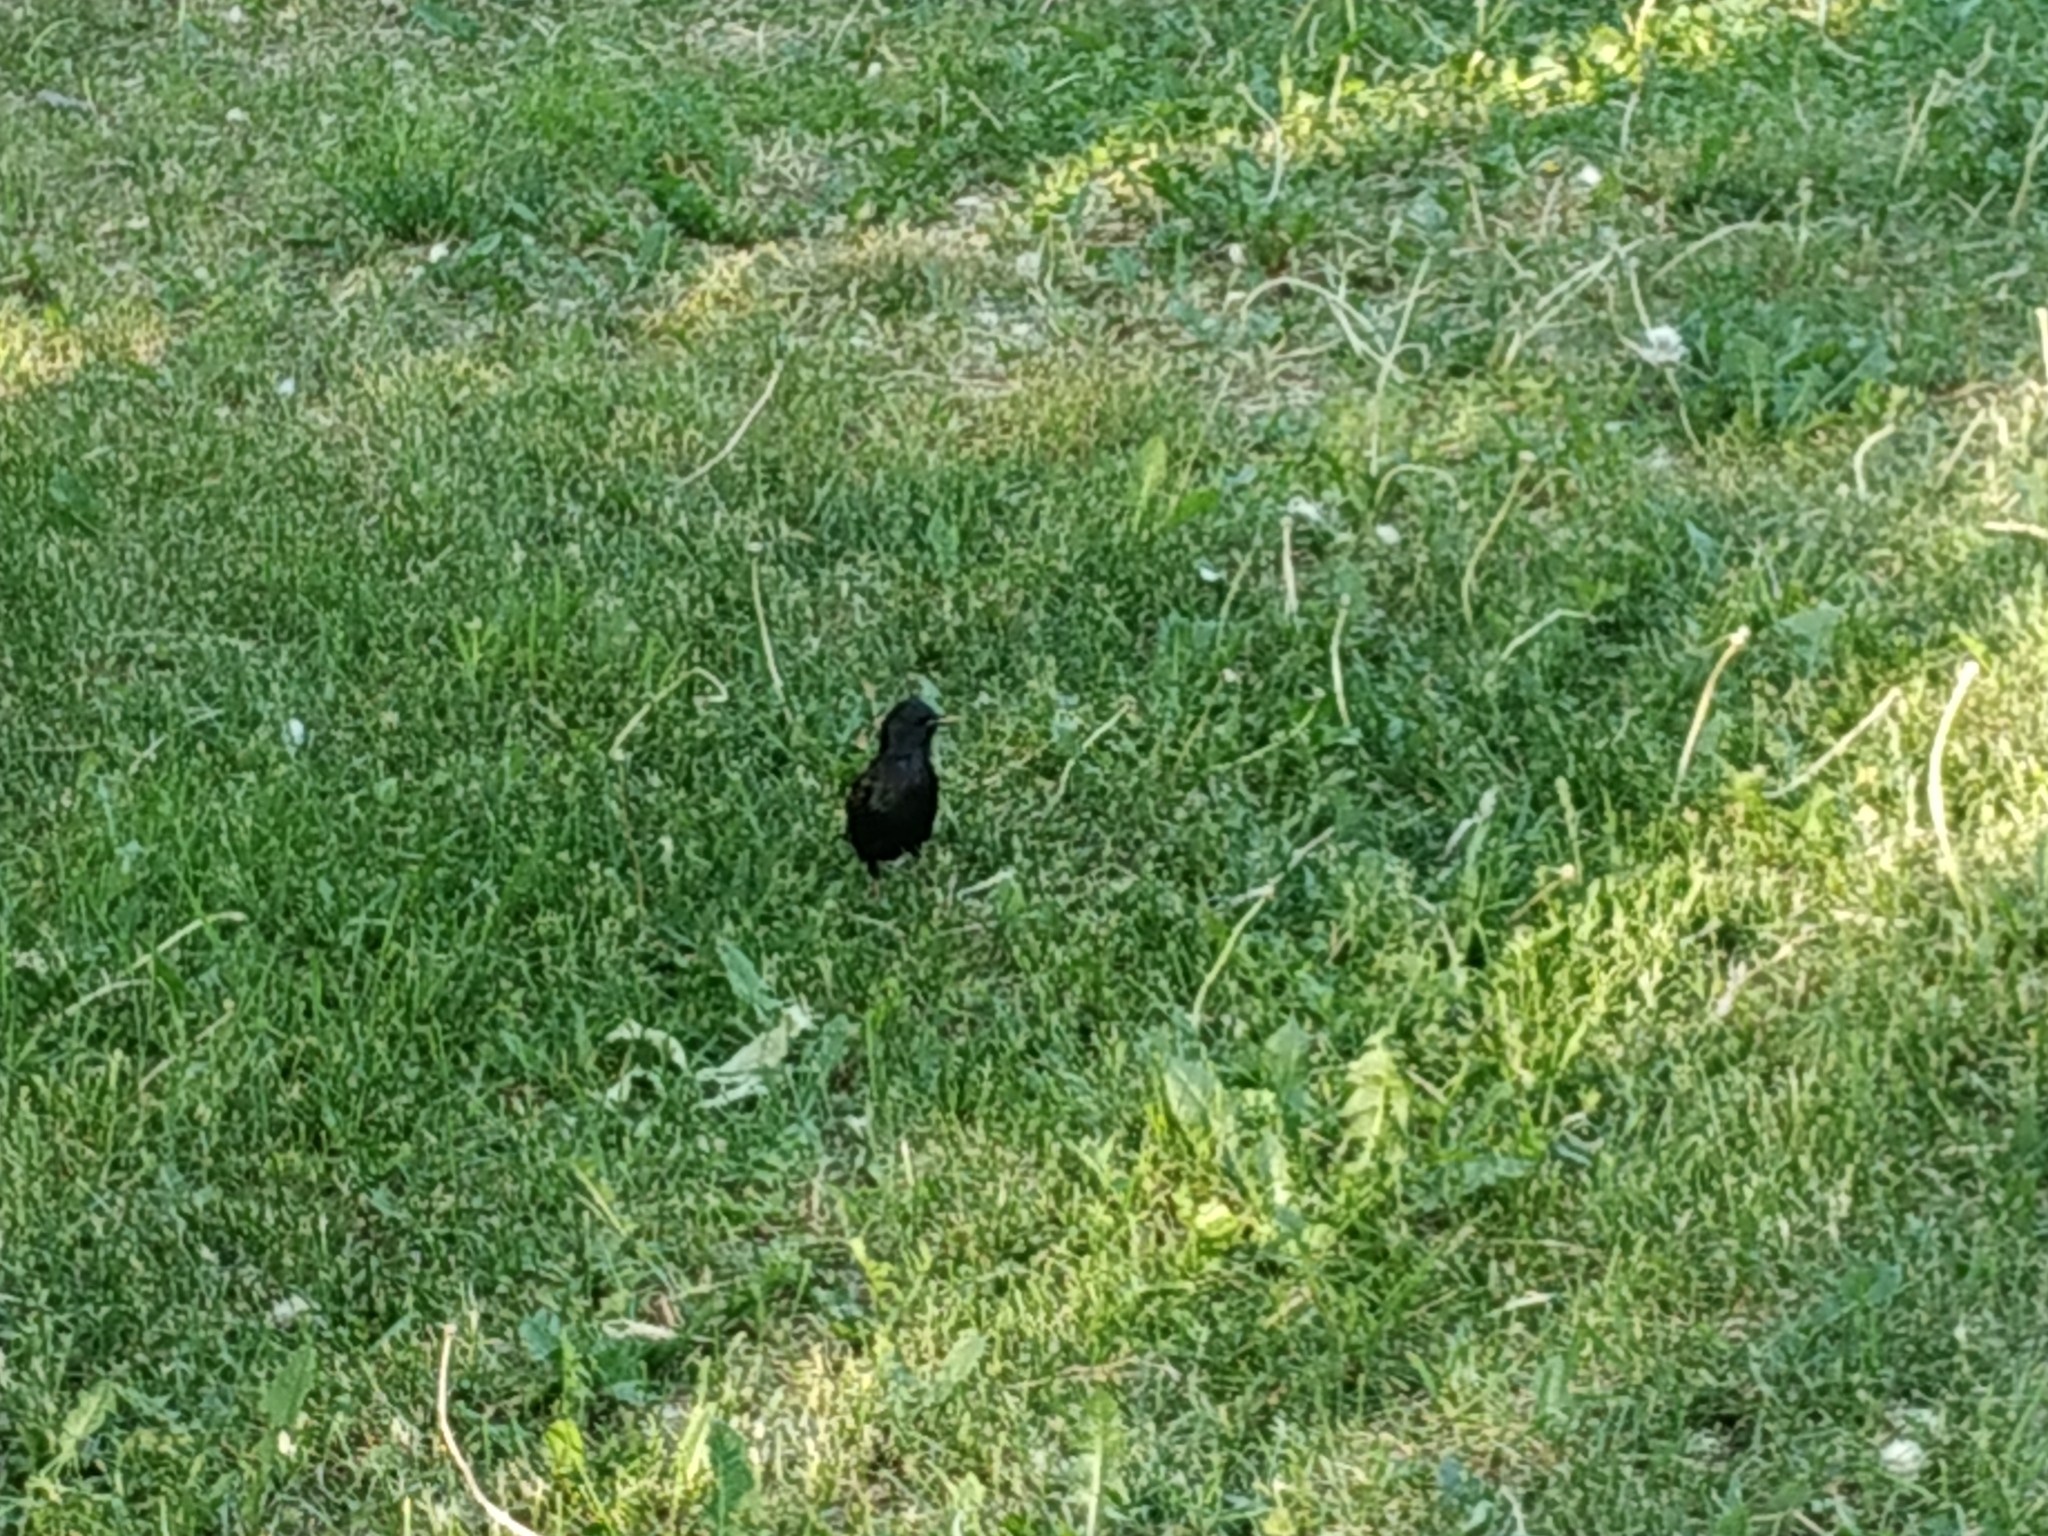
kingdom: Animalia
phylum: Chordata
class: Aves
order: Passeriformes
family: Sturnidae
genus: Sturnus
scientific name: Sturnus vulgaris
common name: Common starling
